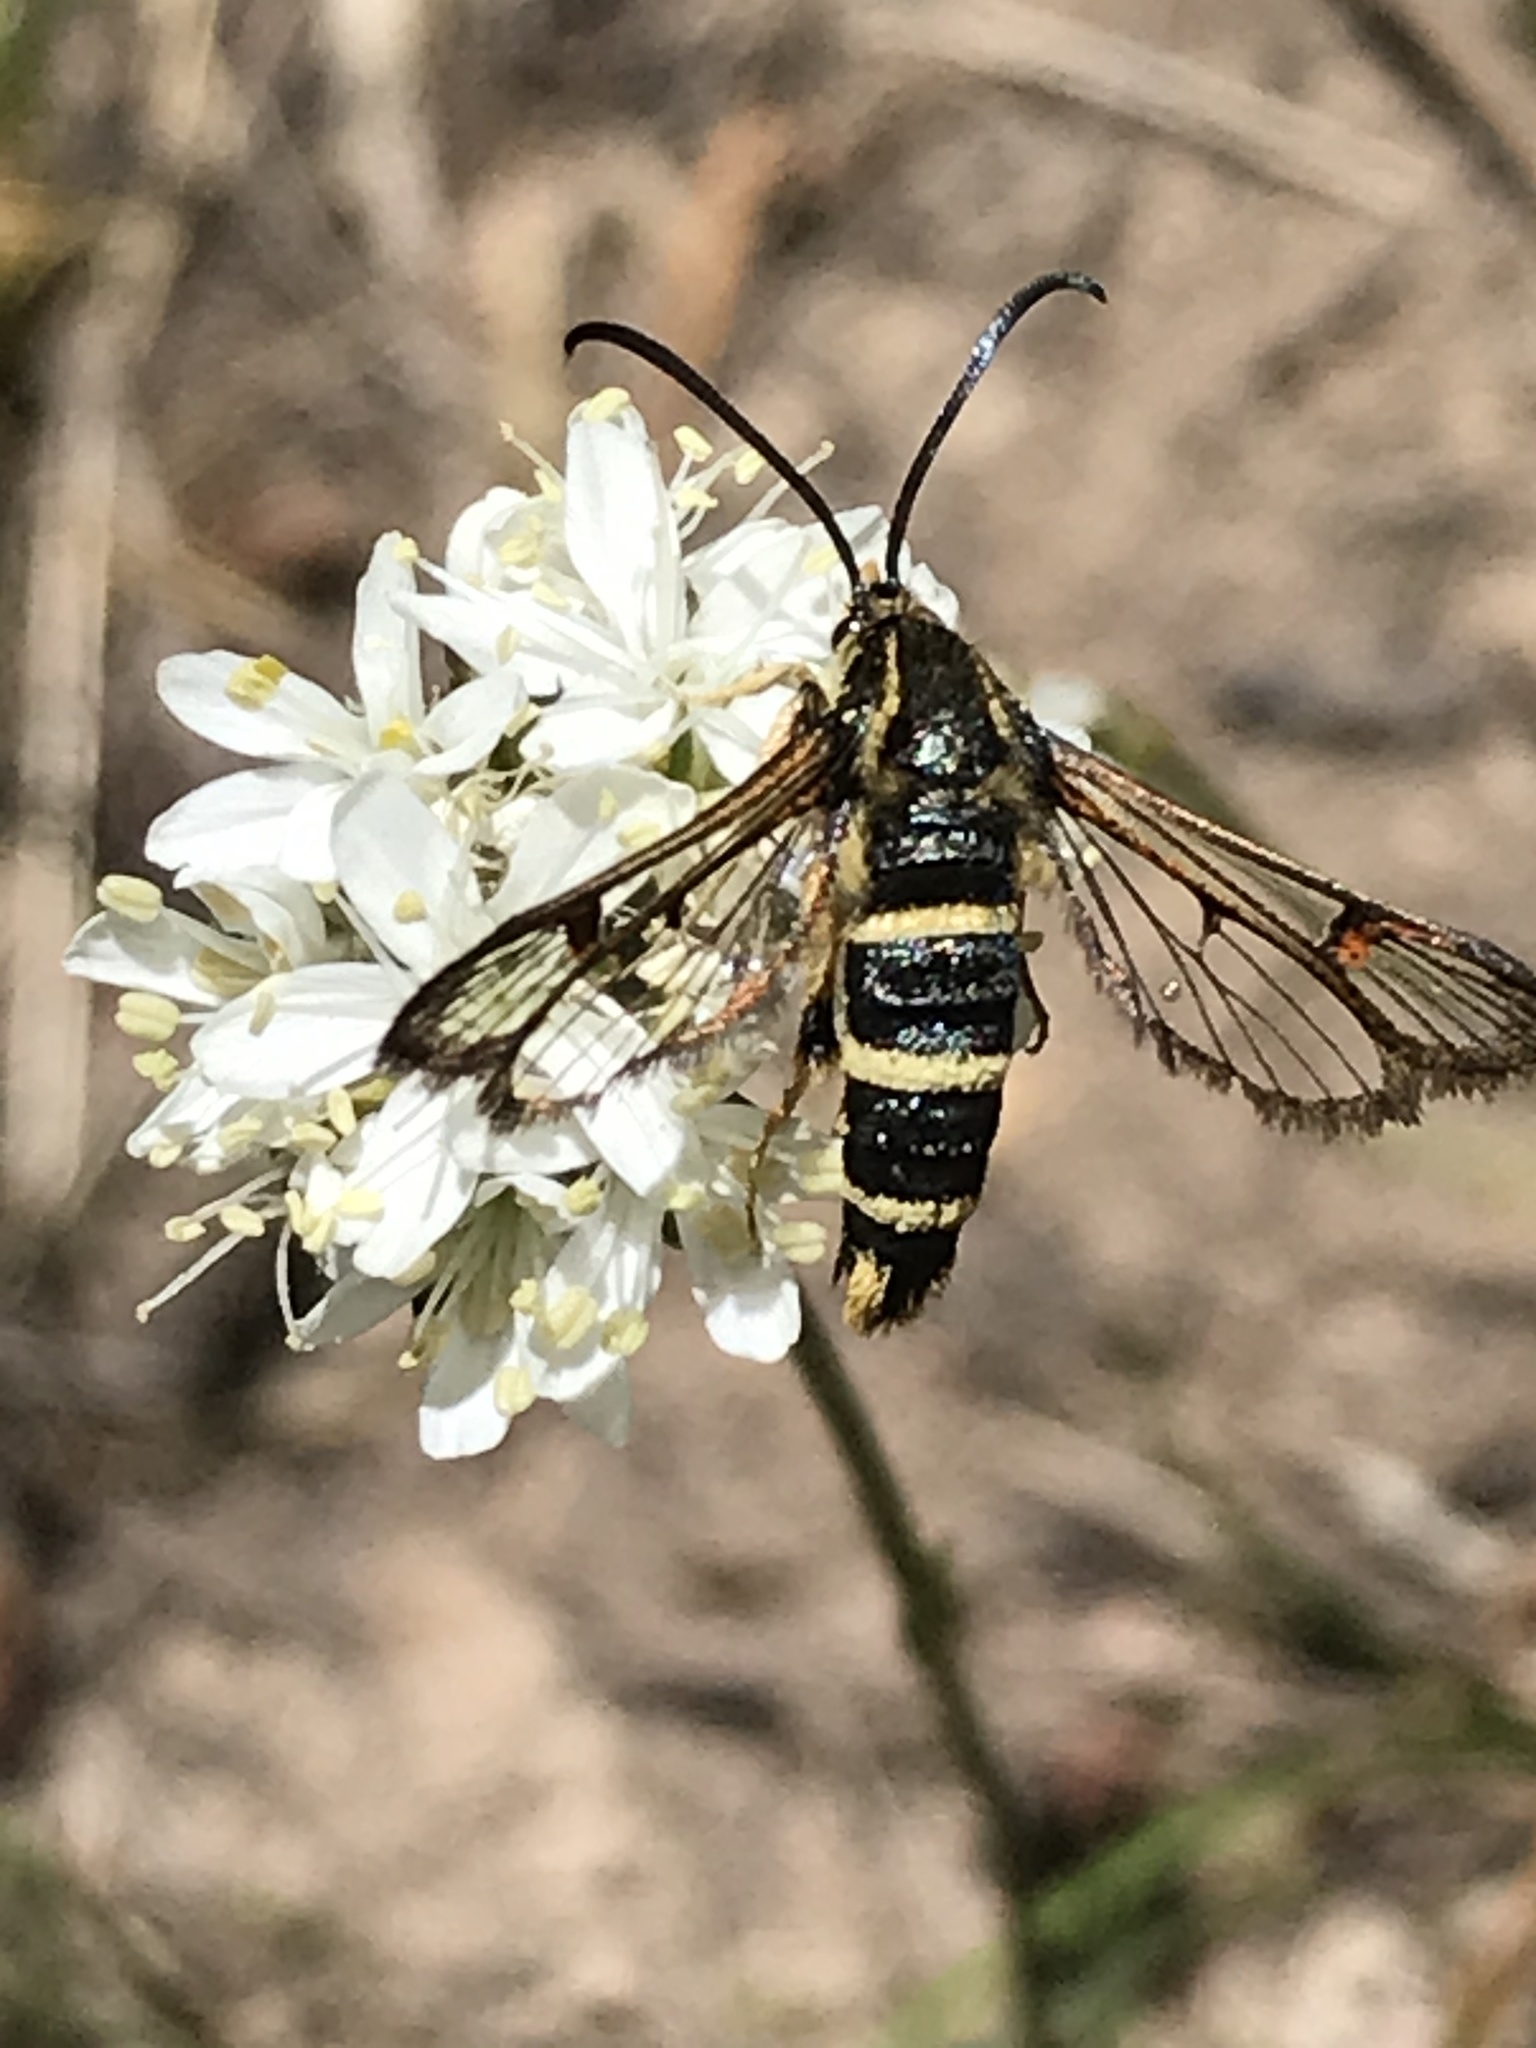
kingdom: Animalia
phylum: Arthropoda
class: Insecta
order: Lepidoptera
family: Sesiidae
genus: Carmenta
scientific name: Carmenta giliae
